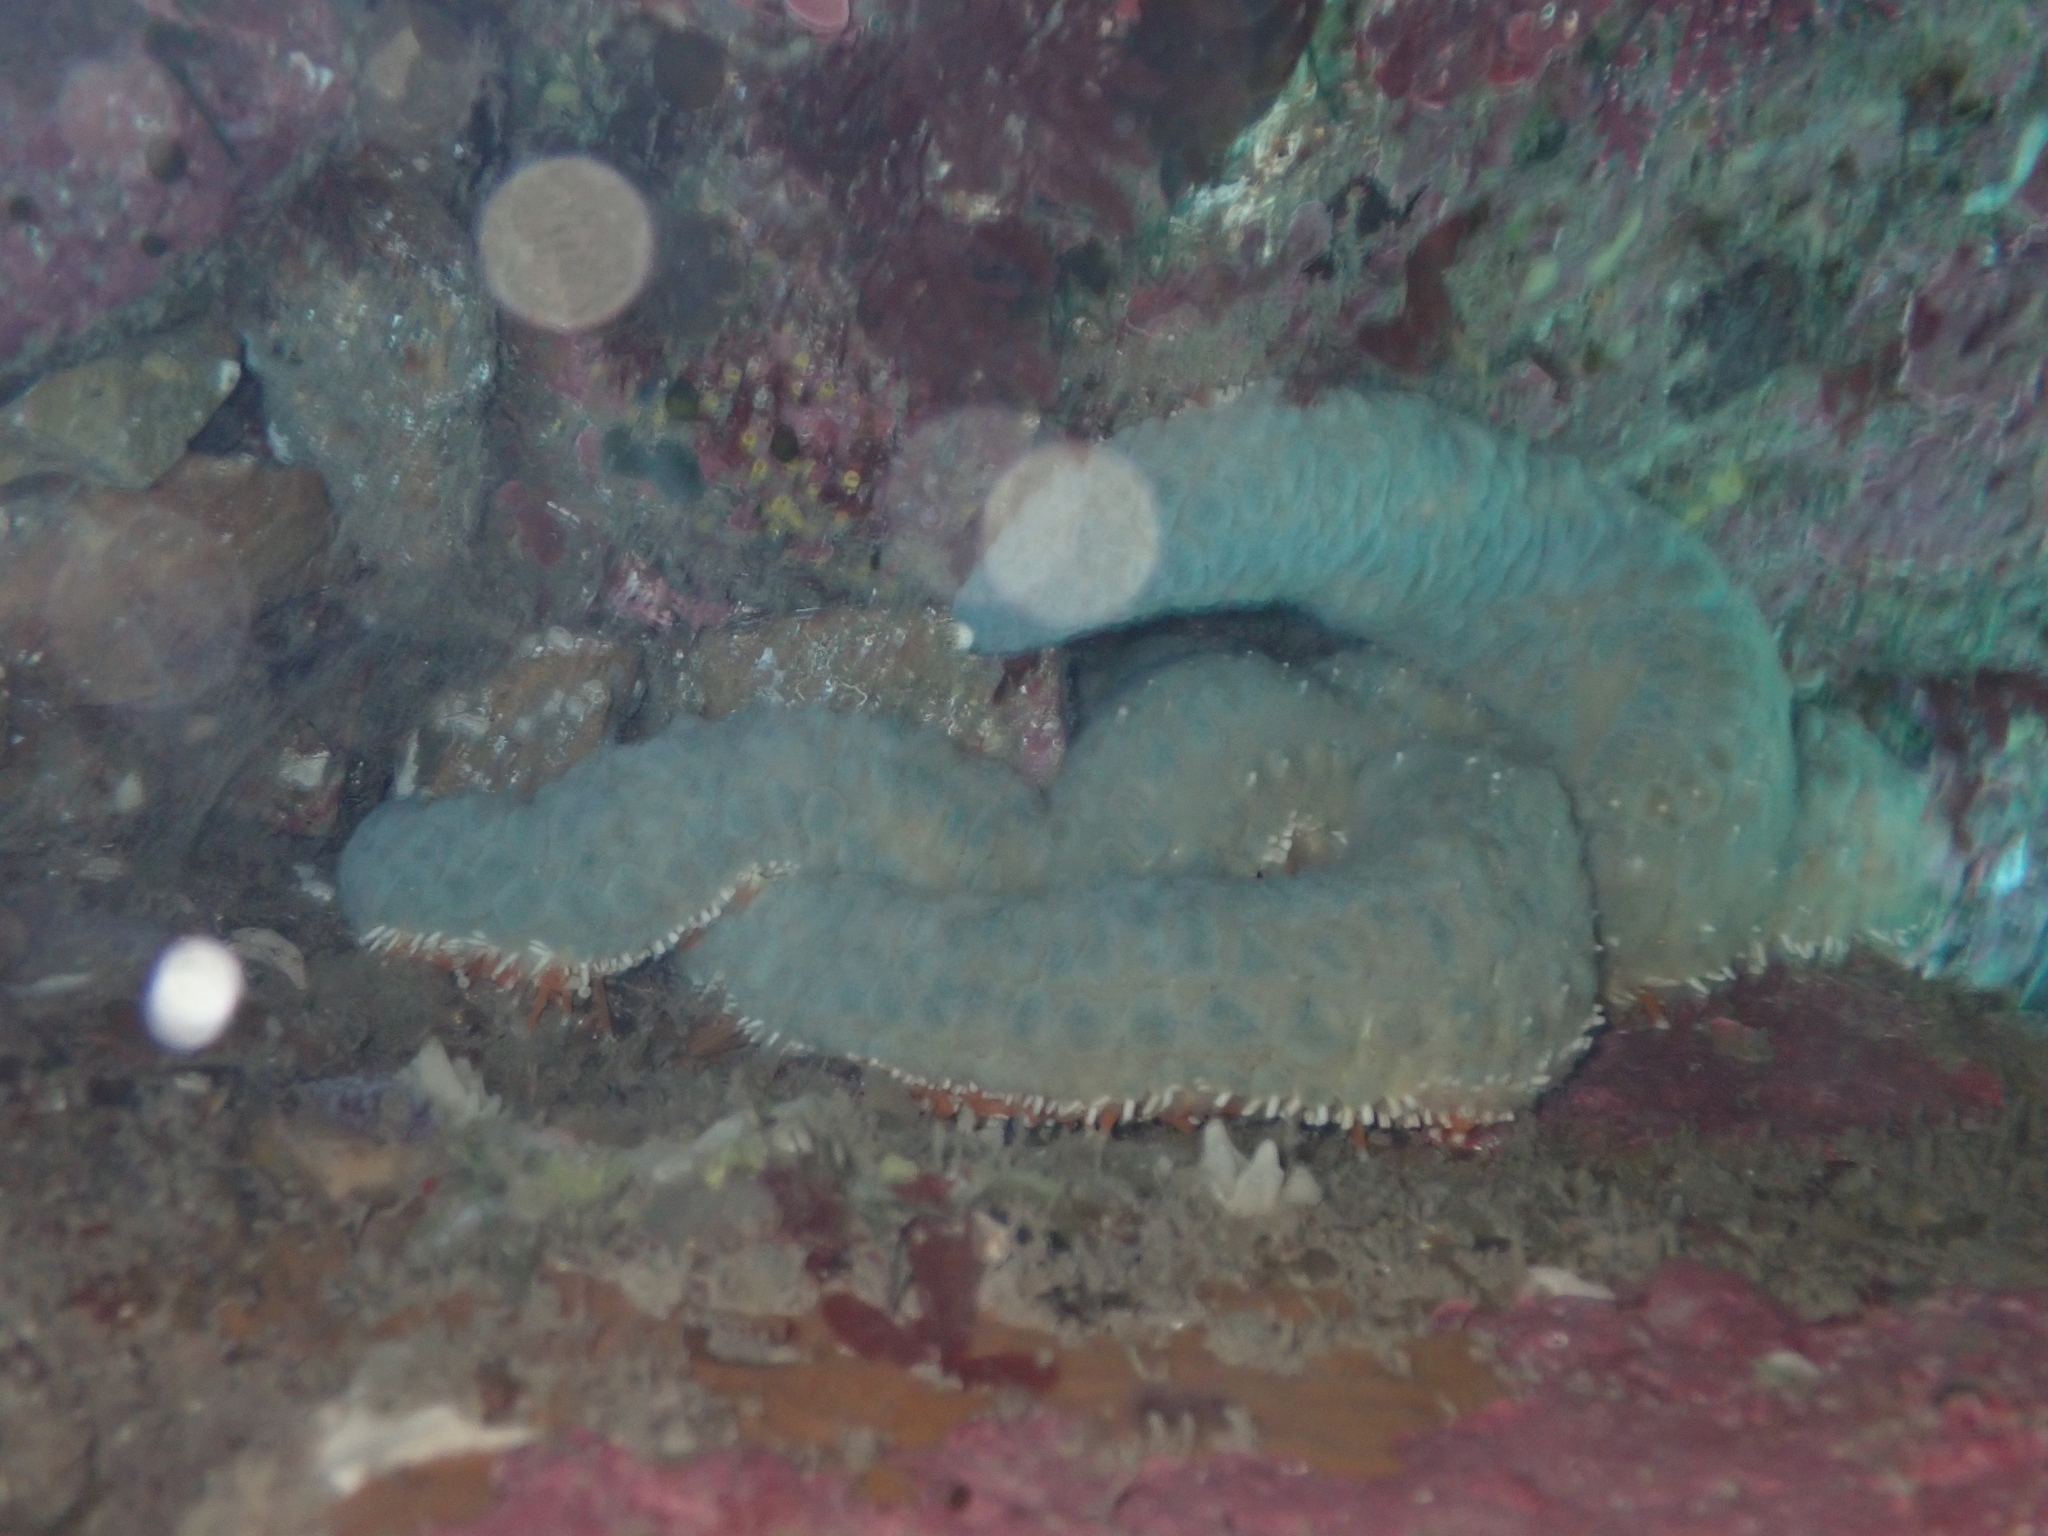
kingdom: Animalia
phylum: Echinodermata
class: Asteroidea
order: Forcipulatida
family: Asteriidae
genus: Astrostole
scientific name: Astrostole scabra
